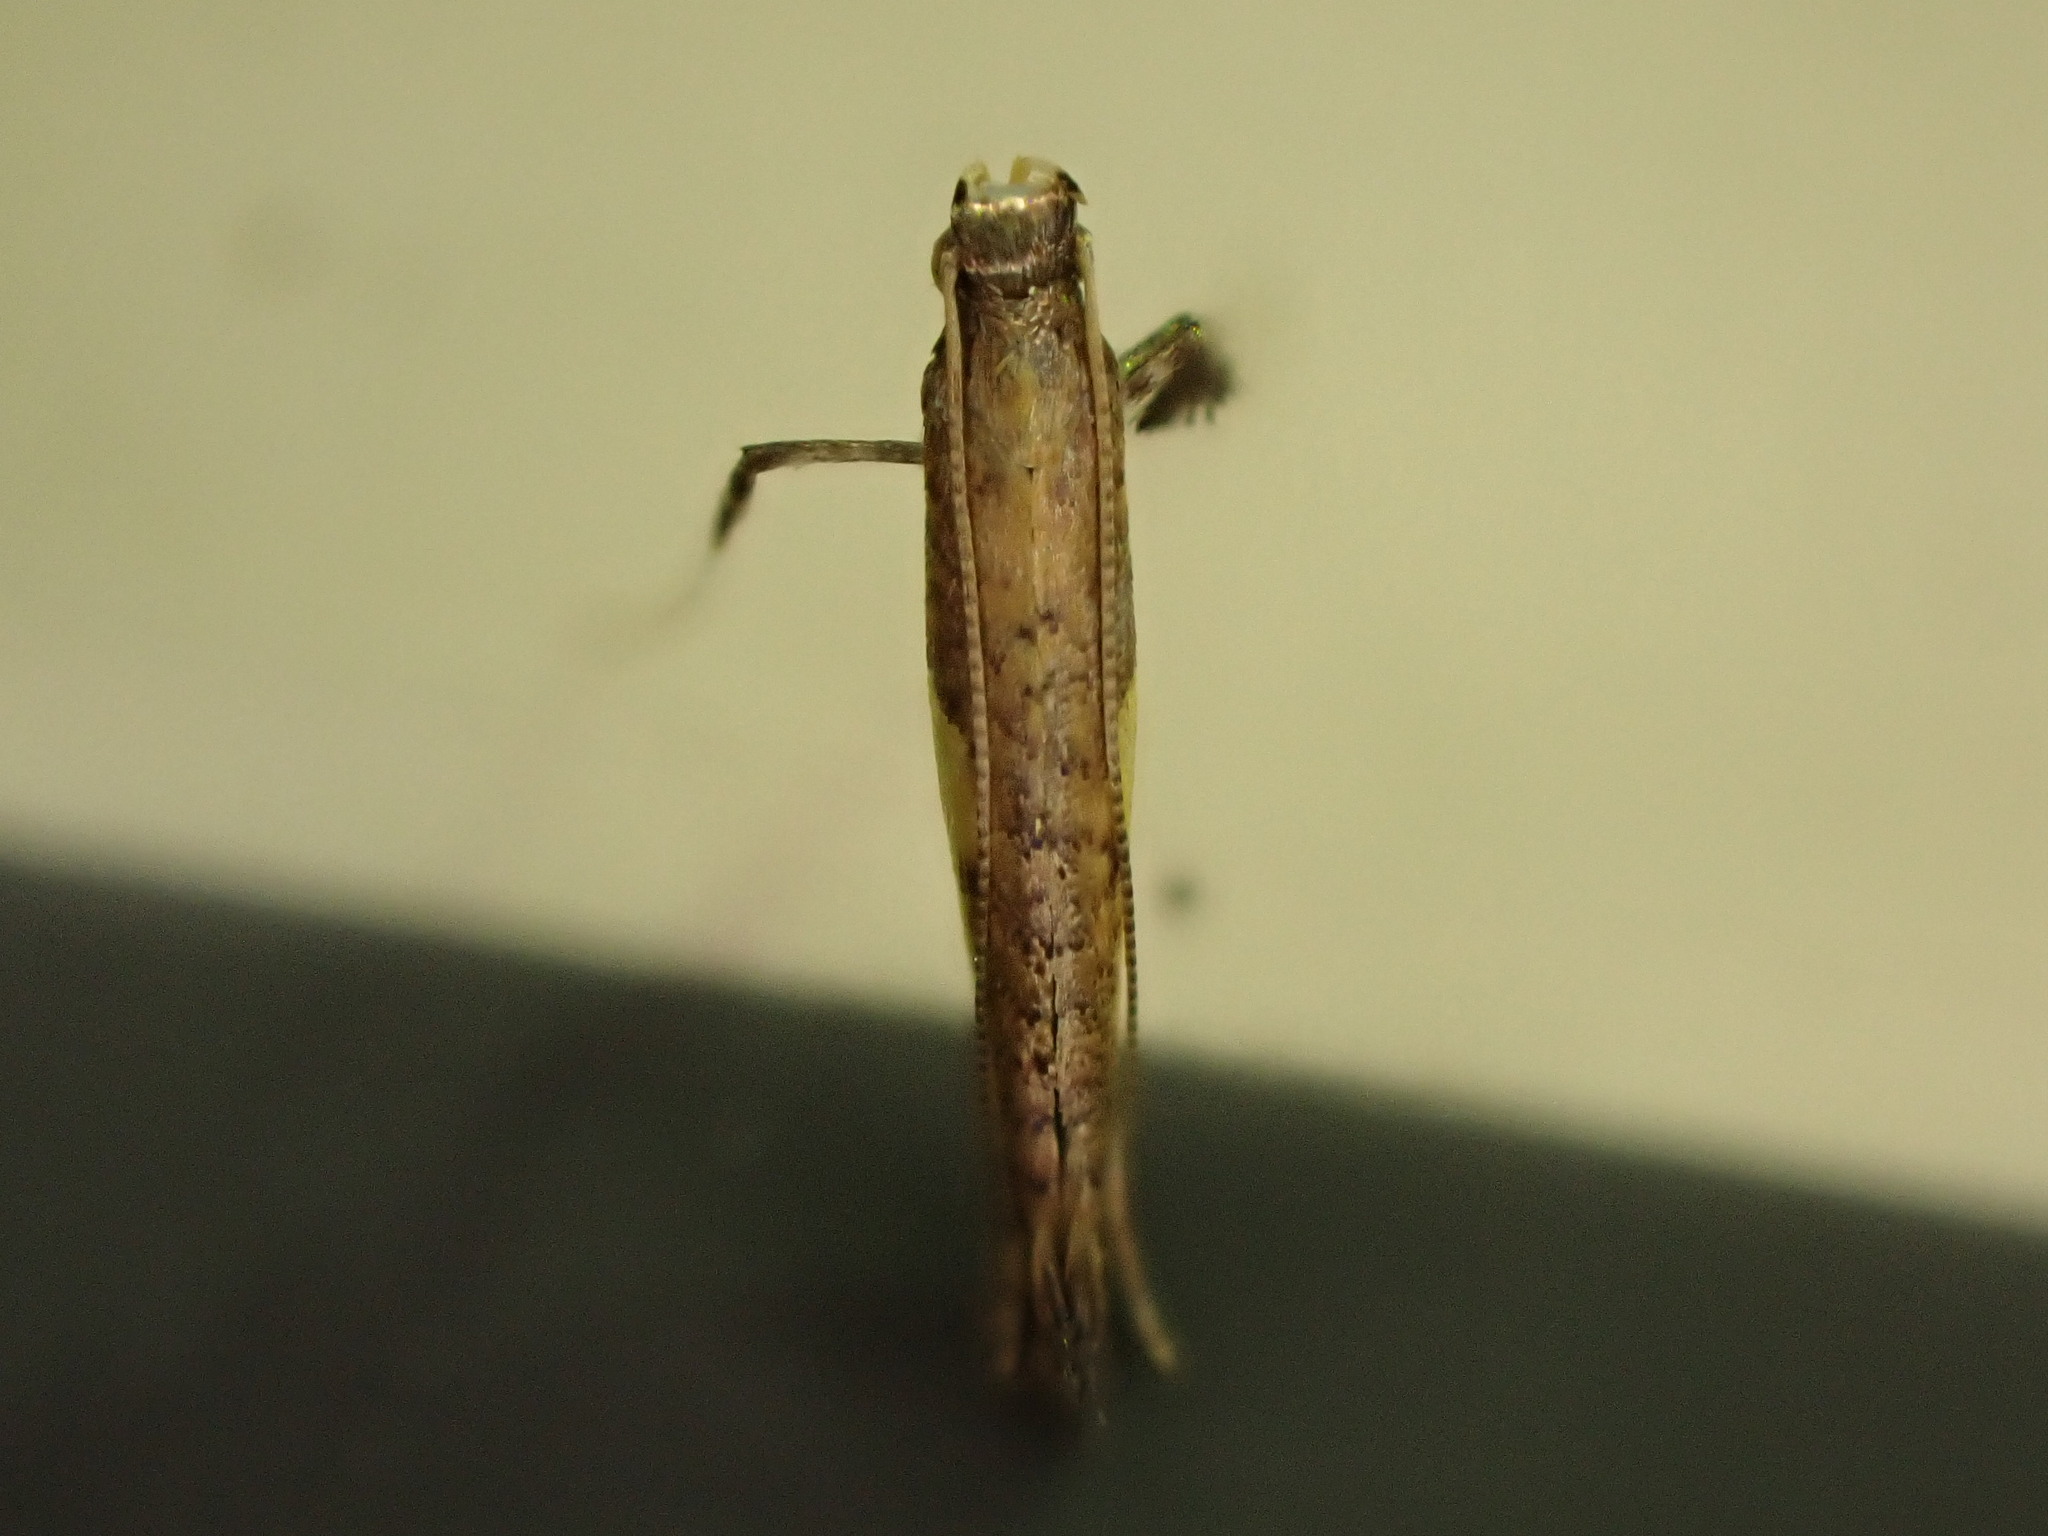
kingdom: Animalia
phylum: Arthropoda
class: Insecta
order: Lepidoptera
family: Gracillariidae
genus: Caloptilia
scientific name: Caloptilia azaleella
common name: Azalea leafminer
